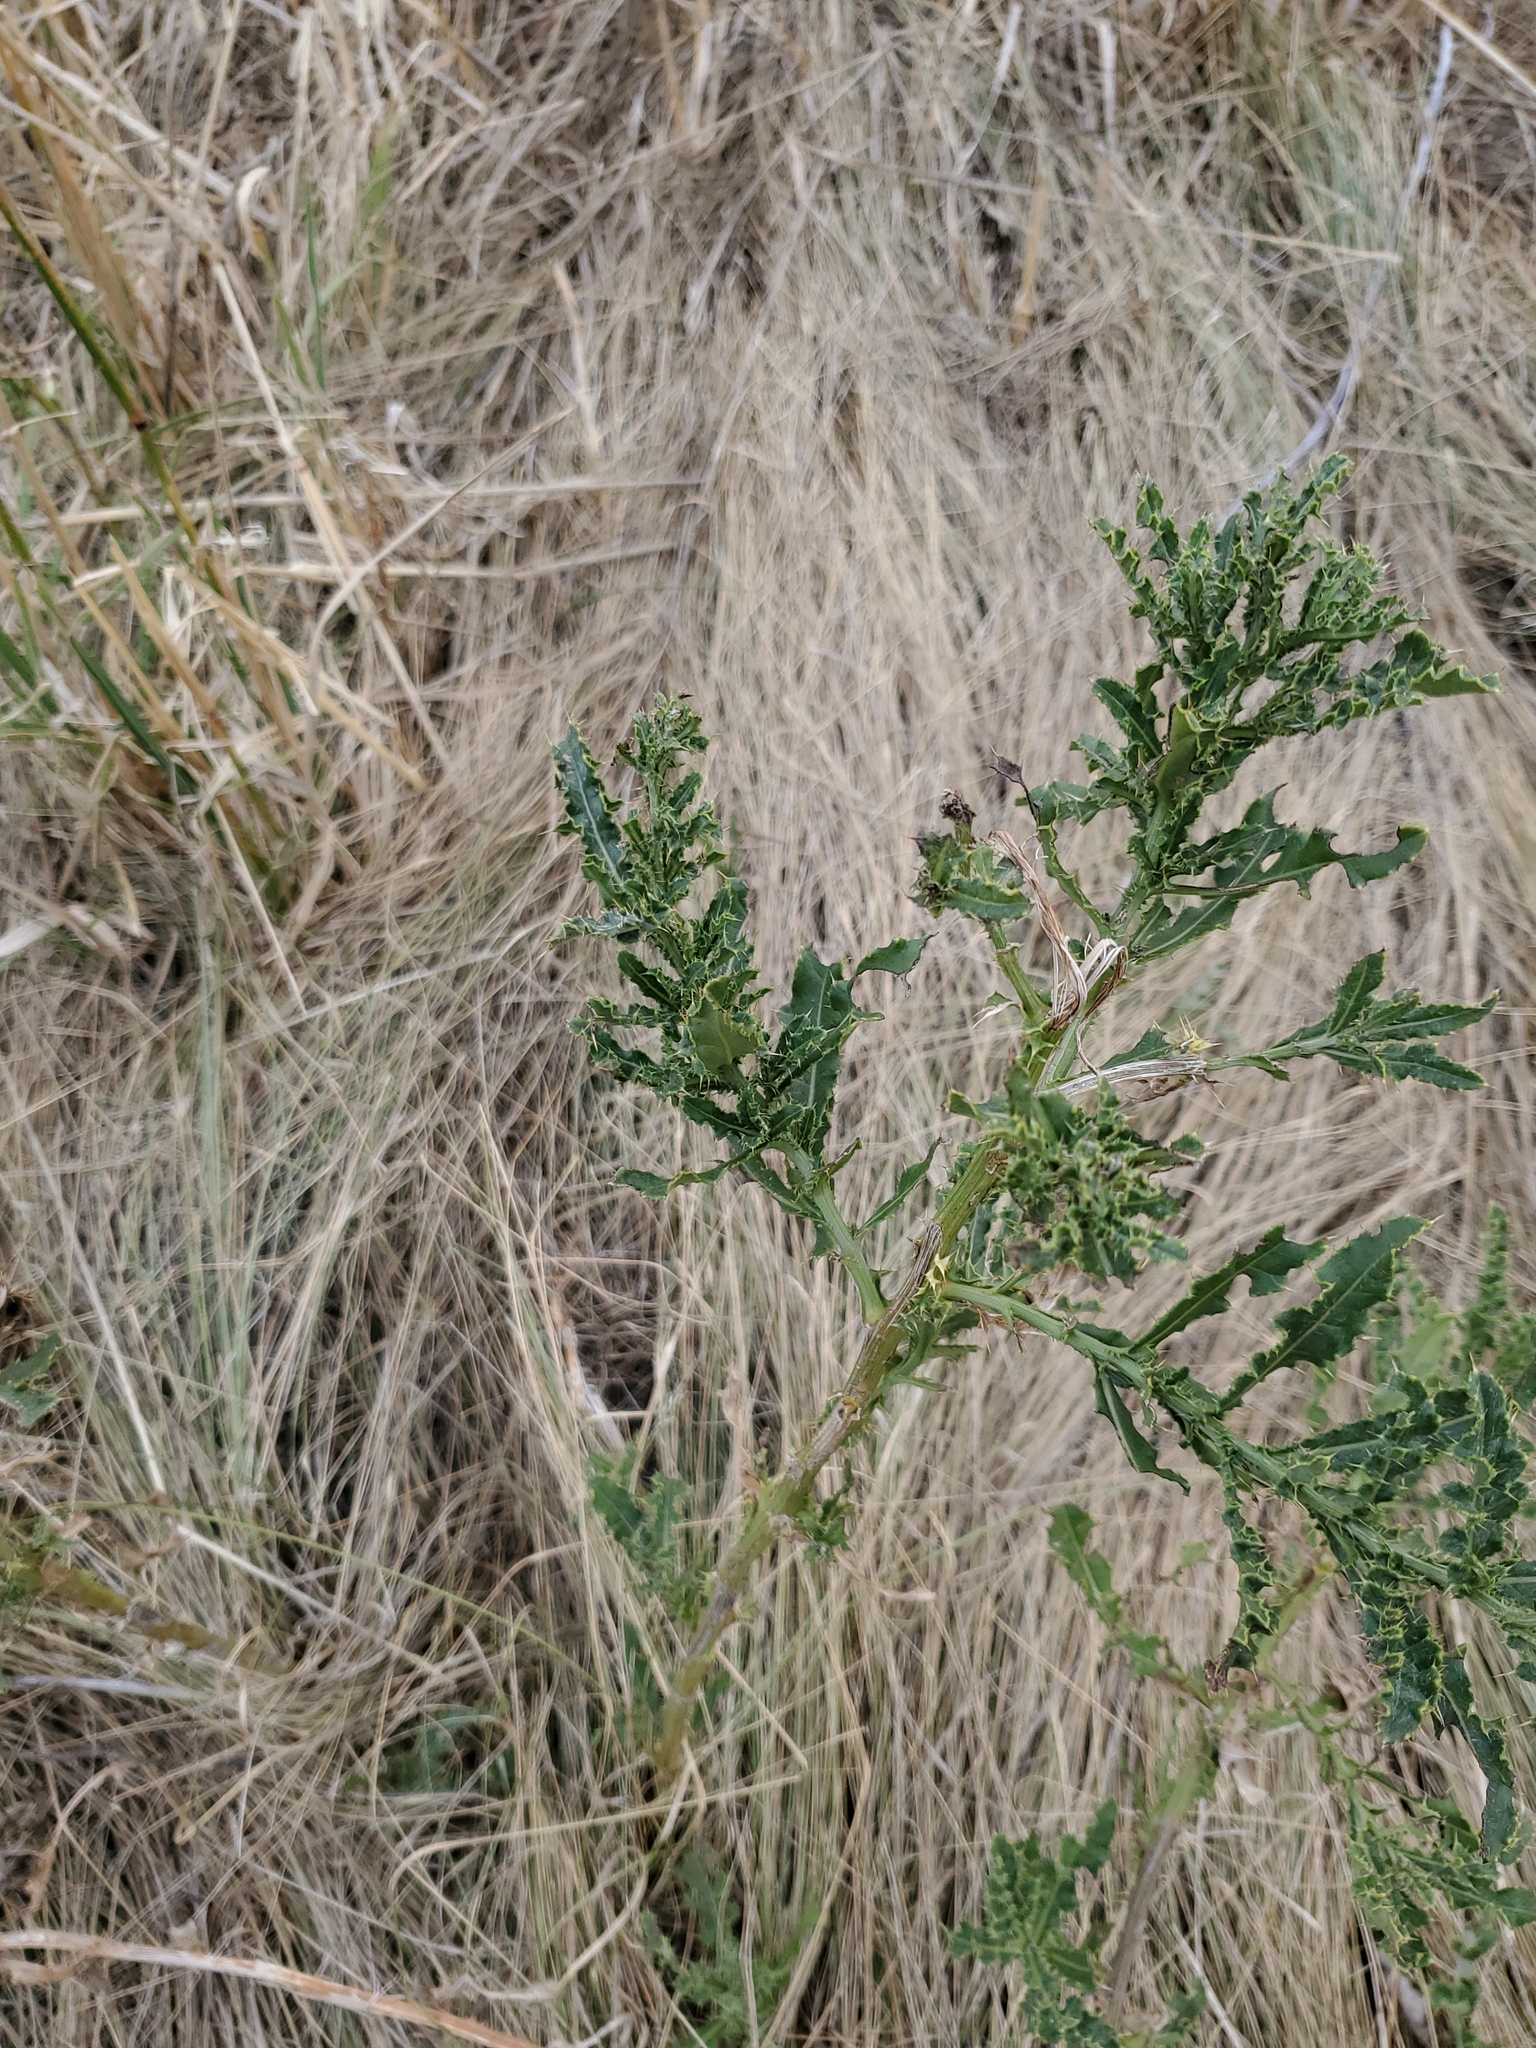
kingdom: Plantae
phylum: Tracheophyta
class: Magnoliopsida
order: Asterales
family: Asteraceae
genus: Cirsium
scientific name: Cirsium arvense
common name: Creeping thistle
